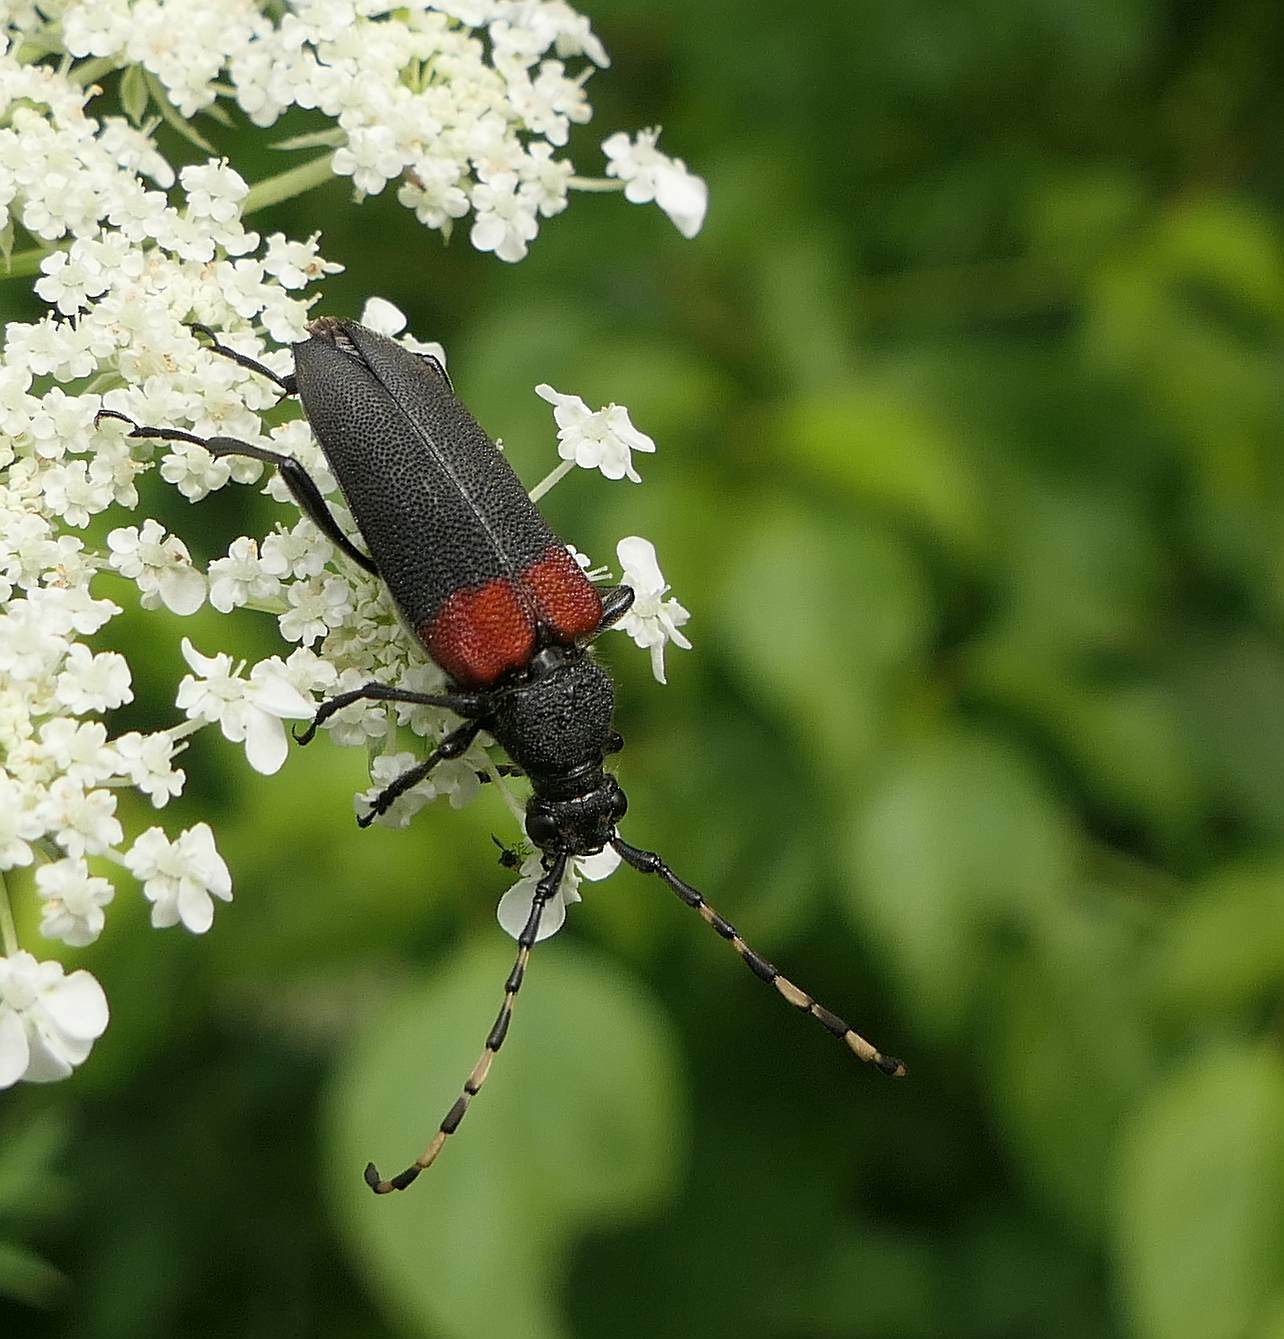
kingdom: Animalia
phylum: Arthropoda
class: Insecta
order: Coleoptera
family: Cerambycidae
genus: Stictoleptura
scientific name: Stictoleptura canadensis
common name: Red-shouldered pine borer
